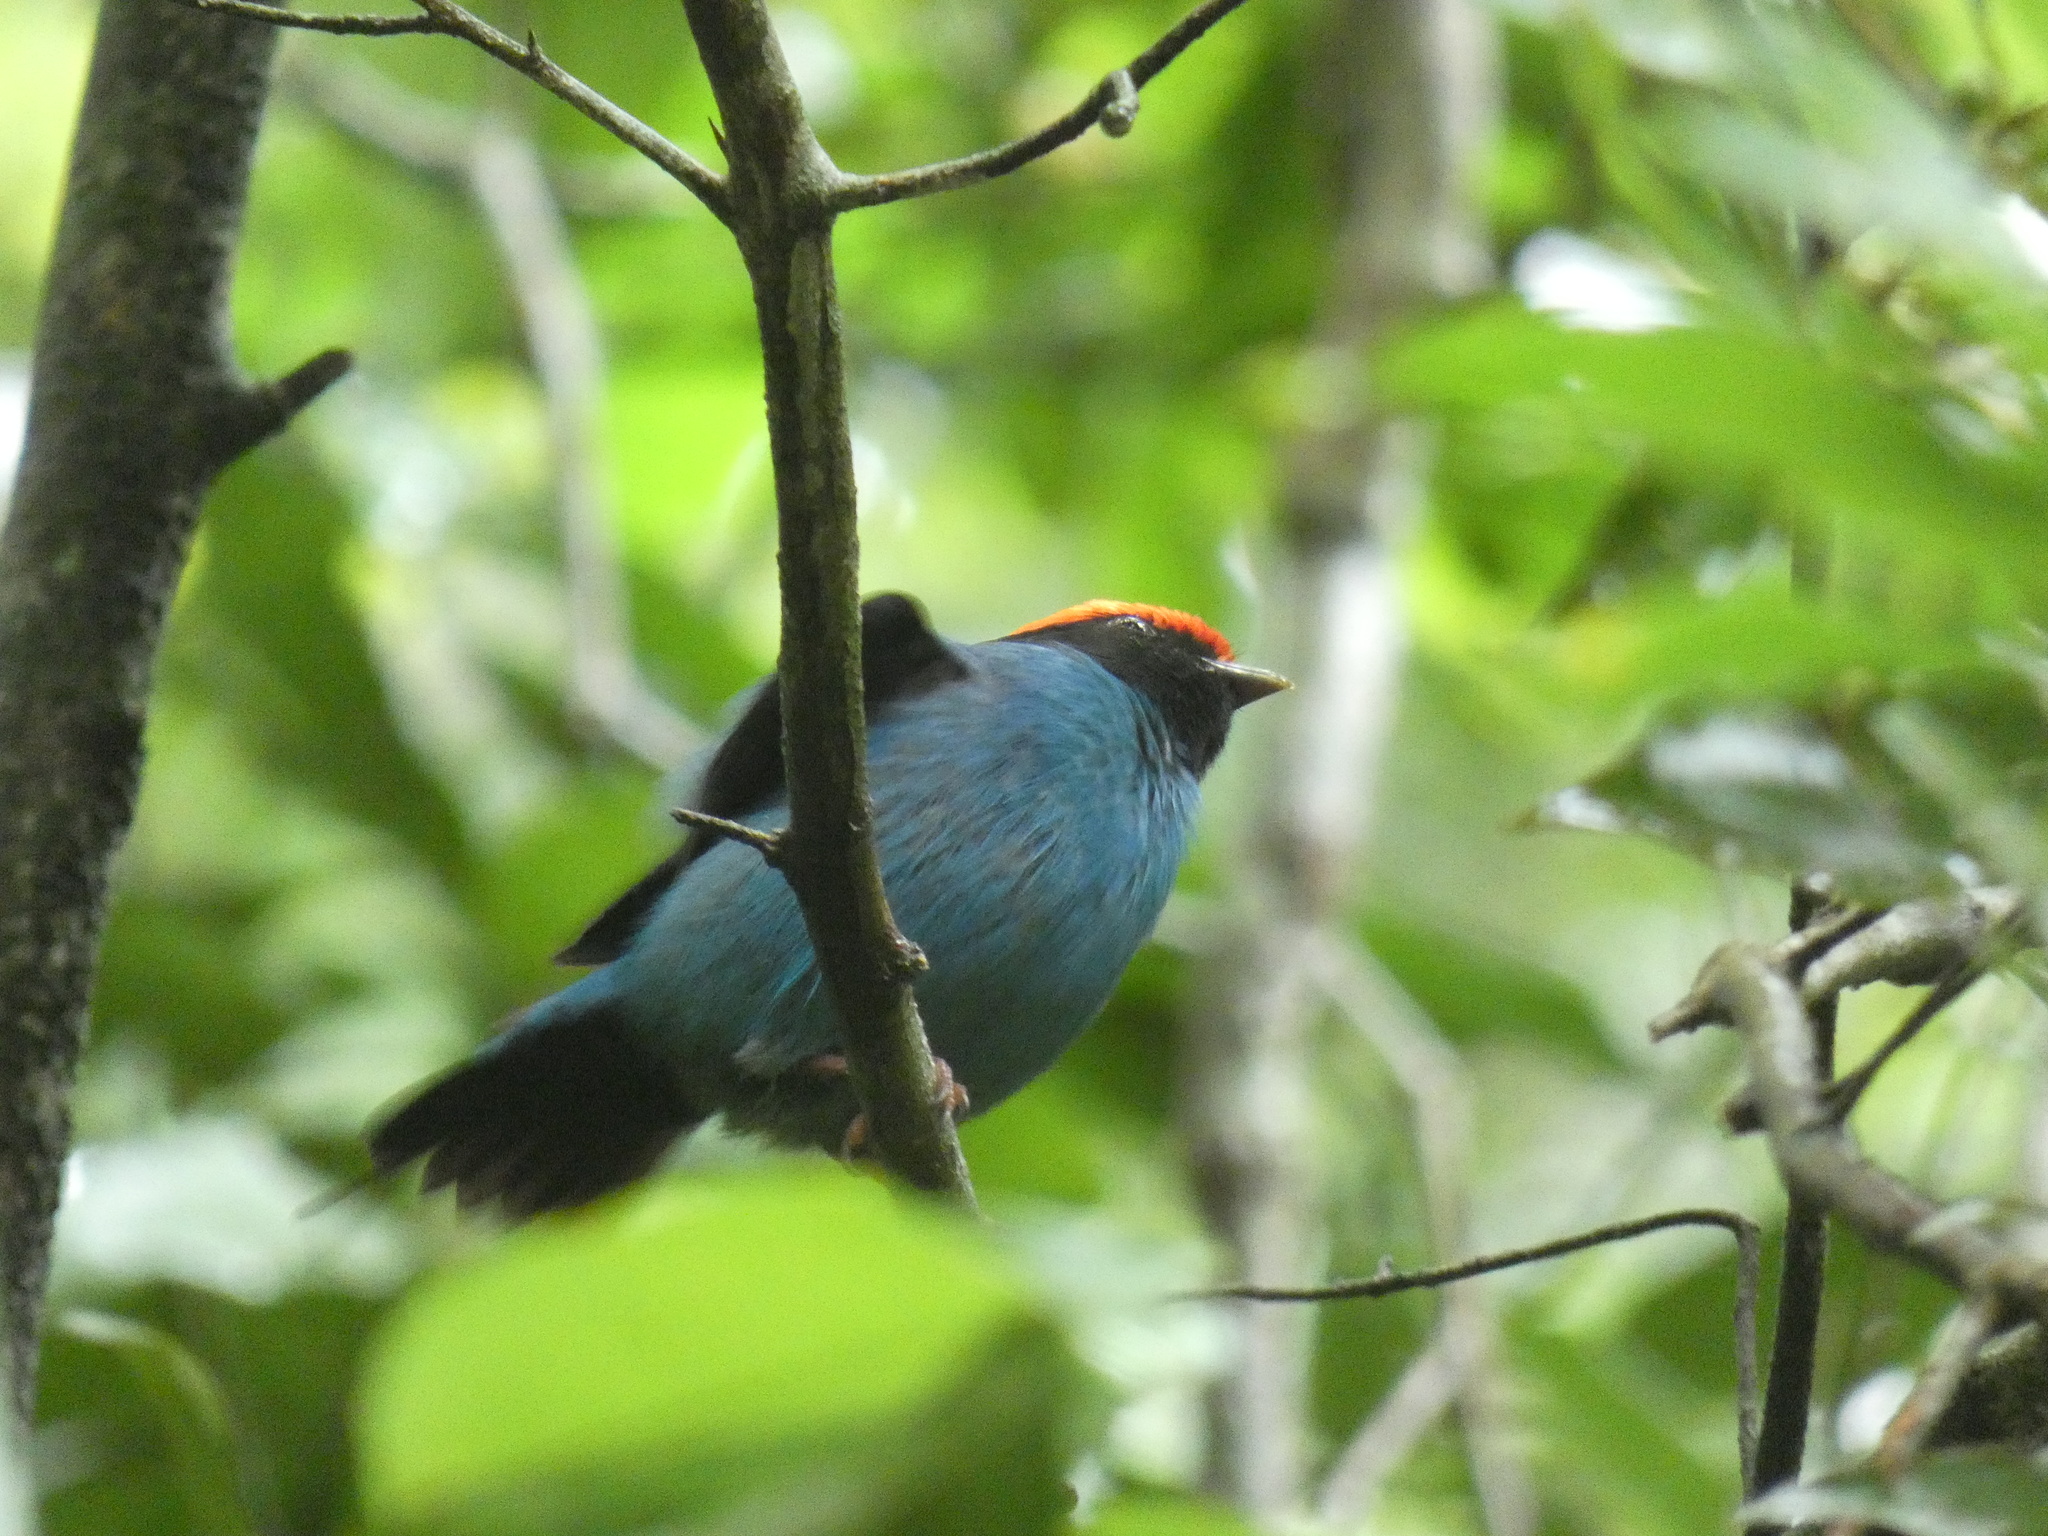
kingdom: Animalia
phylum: Chordata
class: Aves
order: Passeriformes
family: Pipridae
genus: Chiroxiphia
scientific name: Chiroxiphia caudata
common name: Blue manakin
